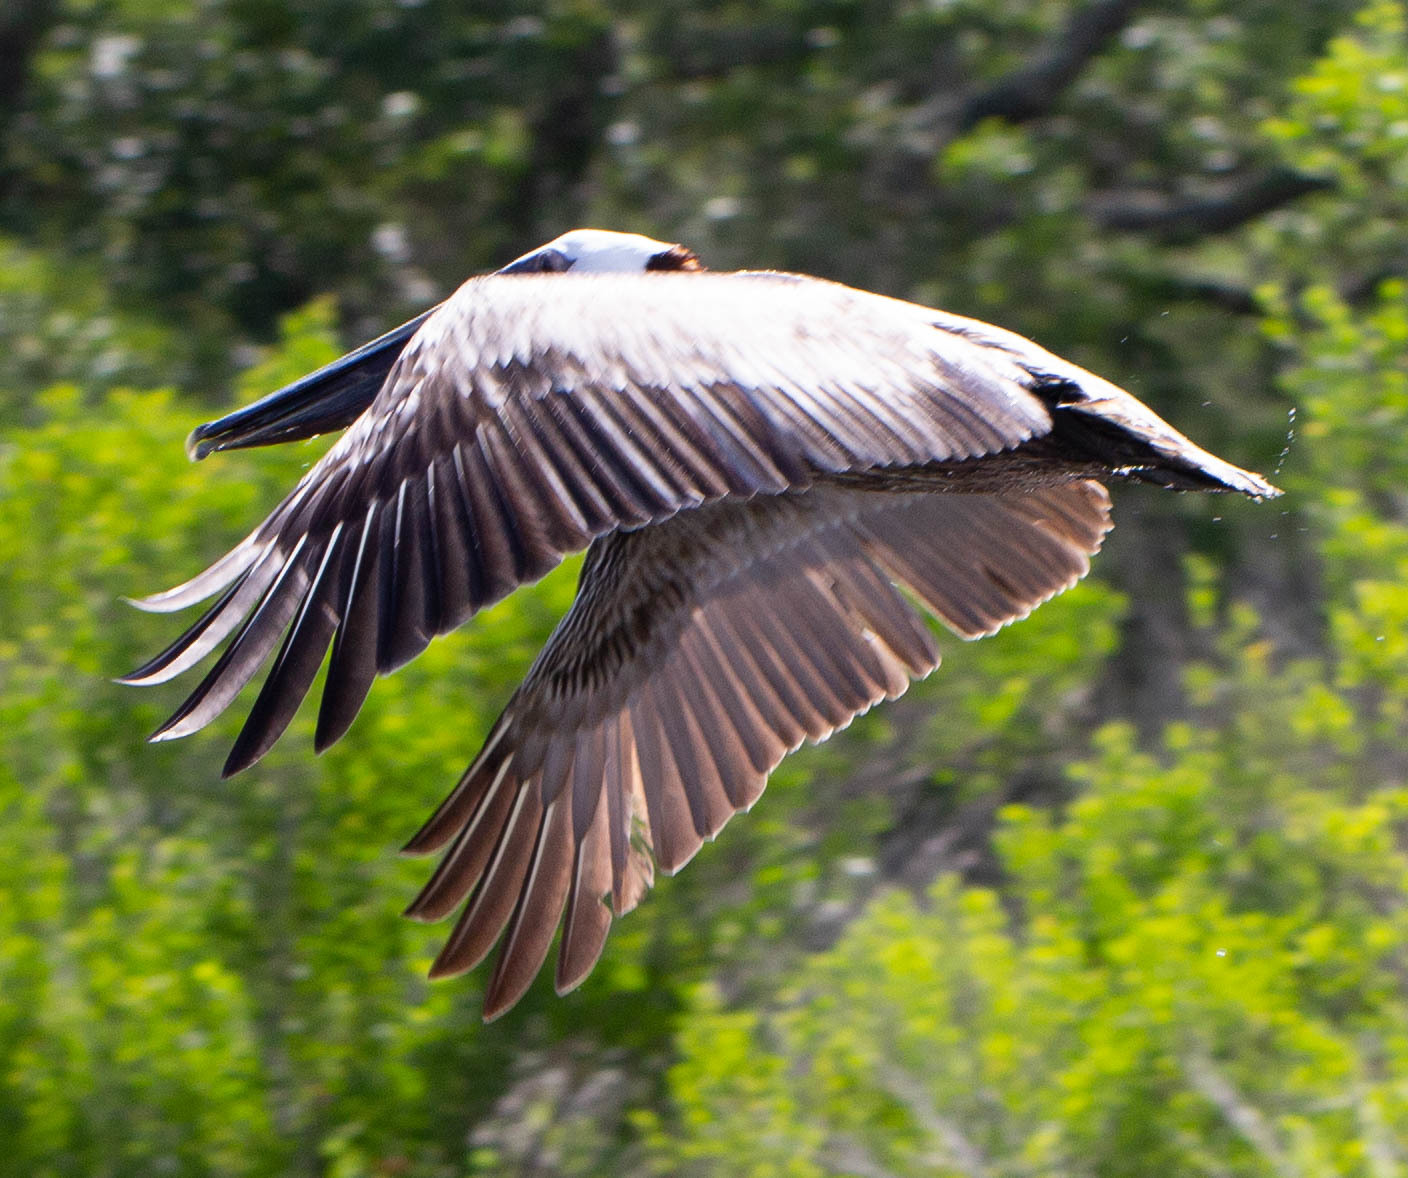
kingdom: Animalia
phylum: Chordata
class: Aves
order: Pelecaniformes
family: Pelecanidae
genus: Pelecanus
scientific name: Pelecanus occidentalis
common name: Brown pelican
